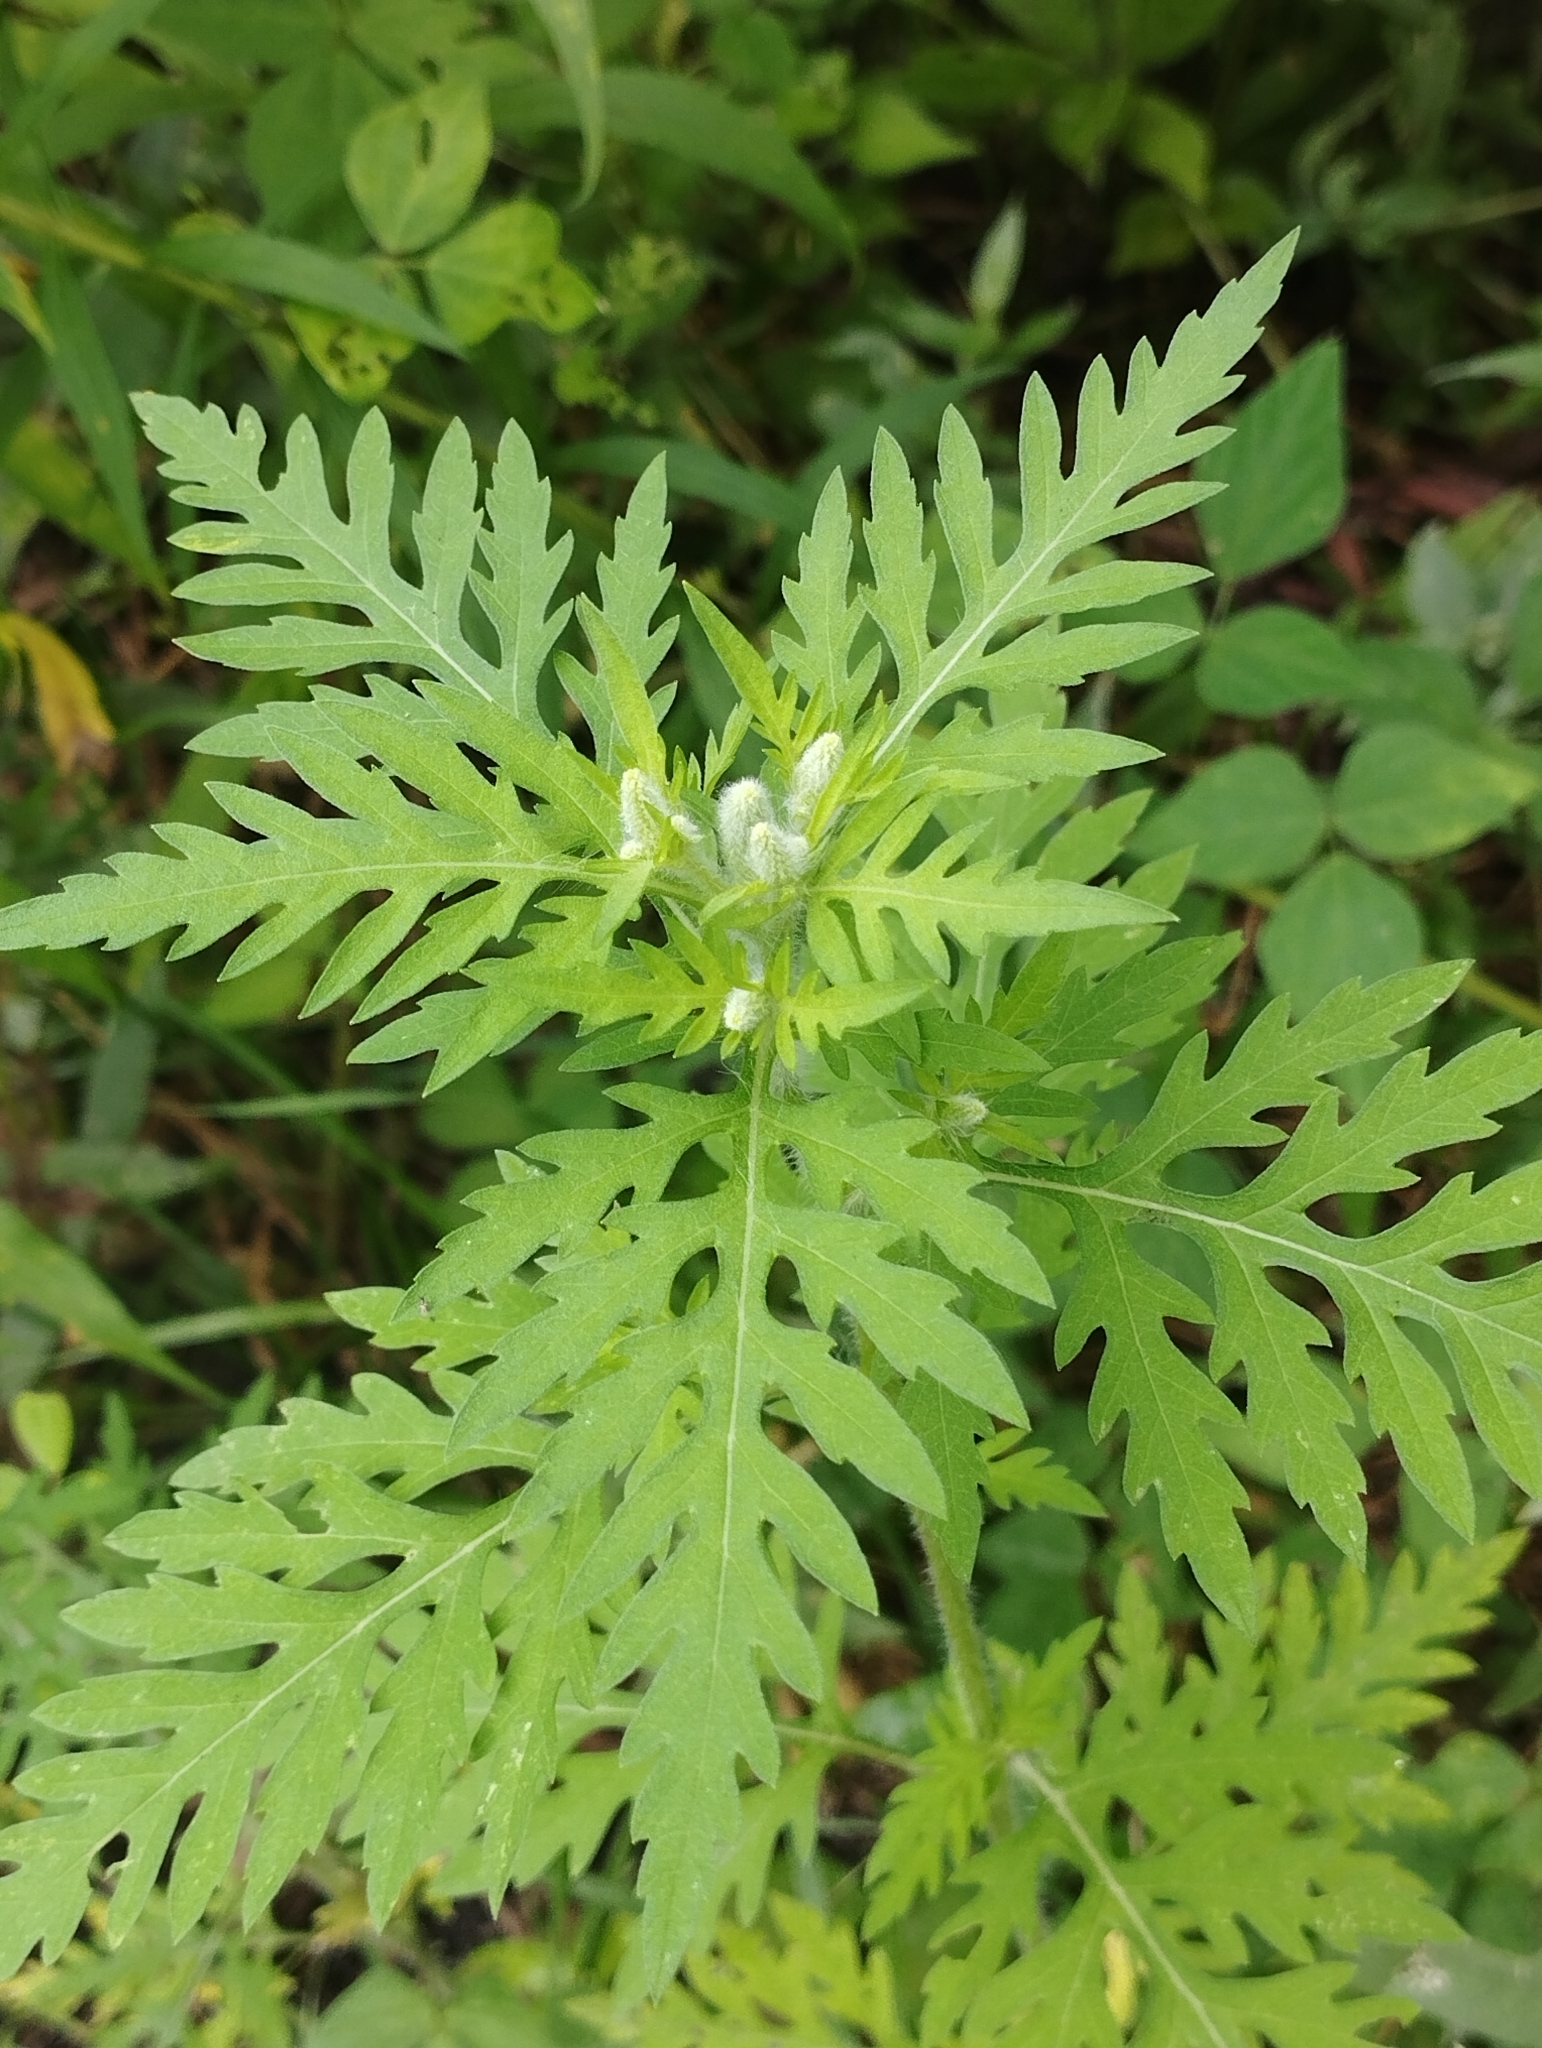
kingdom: Plantae
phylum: Tracheophyta
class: Magnoliopsida
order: Asterales
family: Asteraceae
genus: Ambrosia
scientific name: Ambrosia artemisiifolia
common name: Annual ragweed
